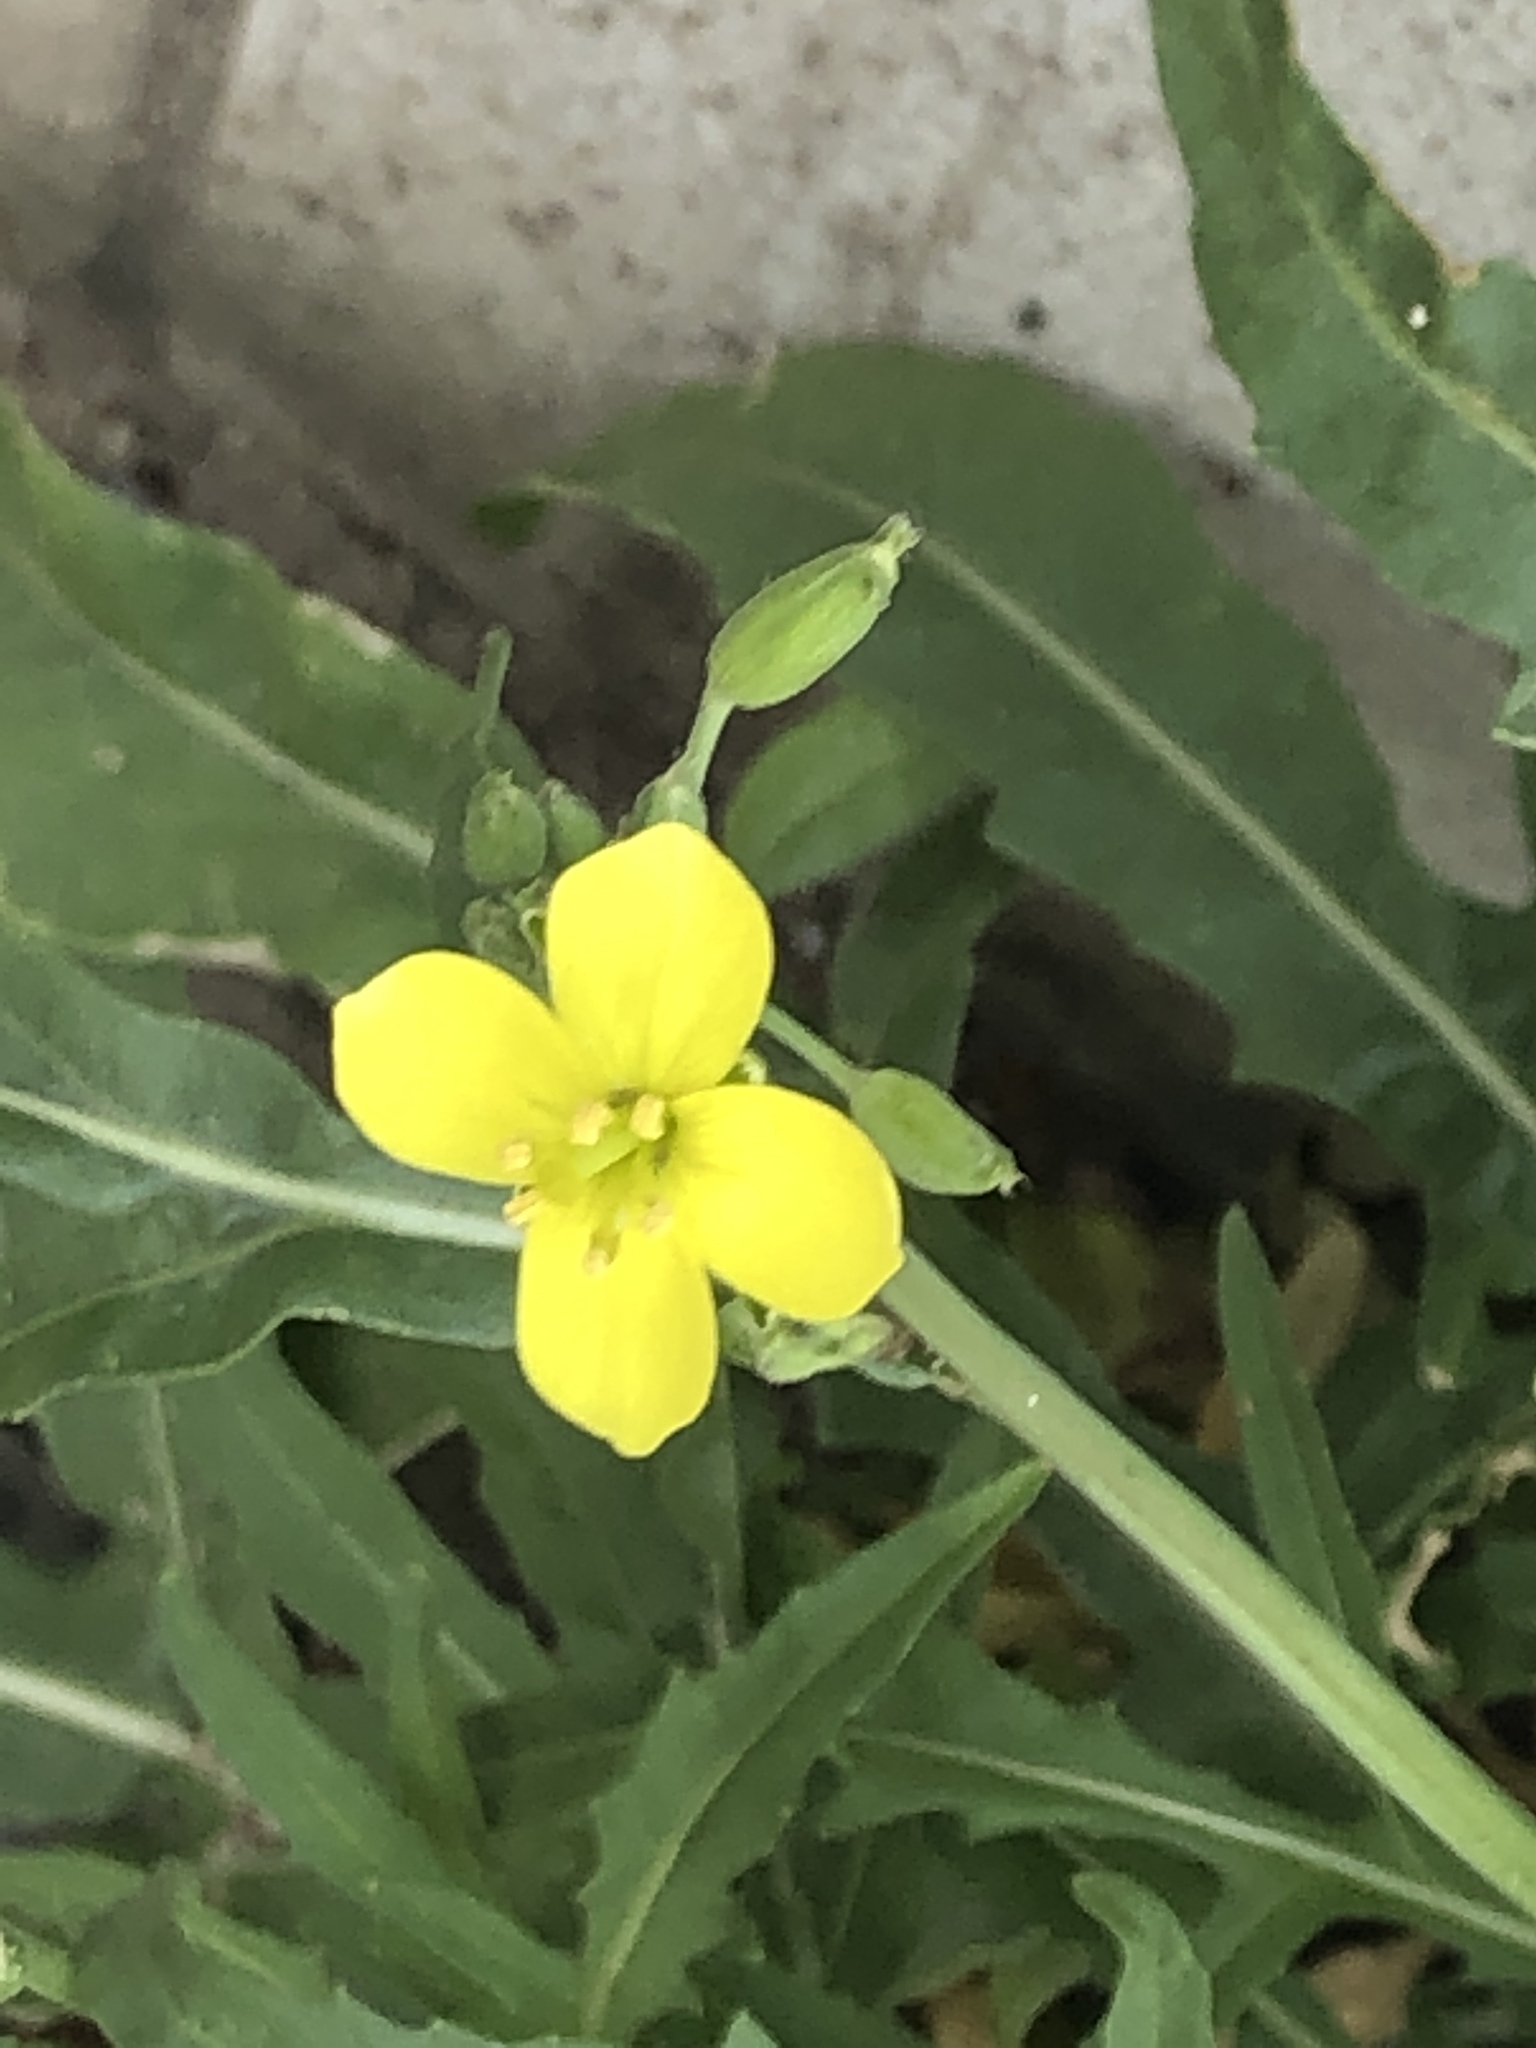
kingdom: Plantae
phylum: Tracheophyta
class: Magnoliopsida
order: Brassicales
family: Brassicaceae
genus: Diplotaxis
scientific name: Diplotaxis tenuifolia
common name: Perennial wall-rocket
